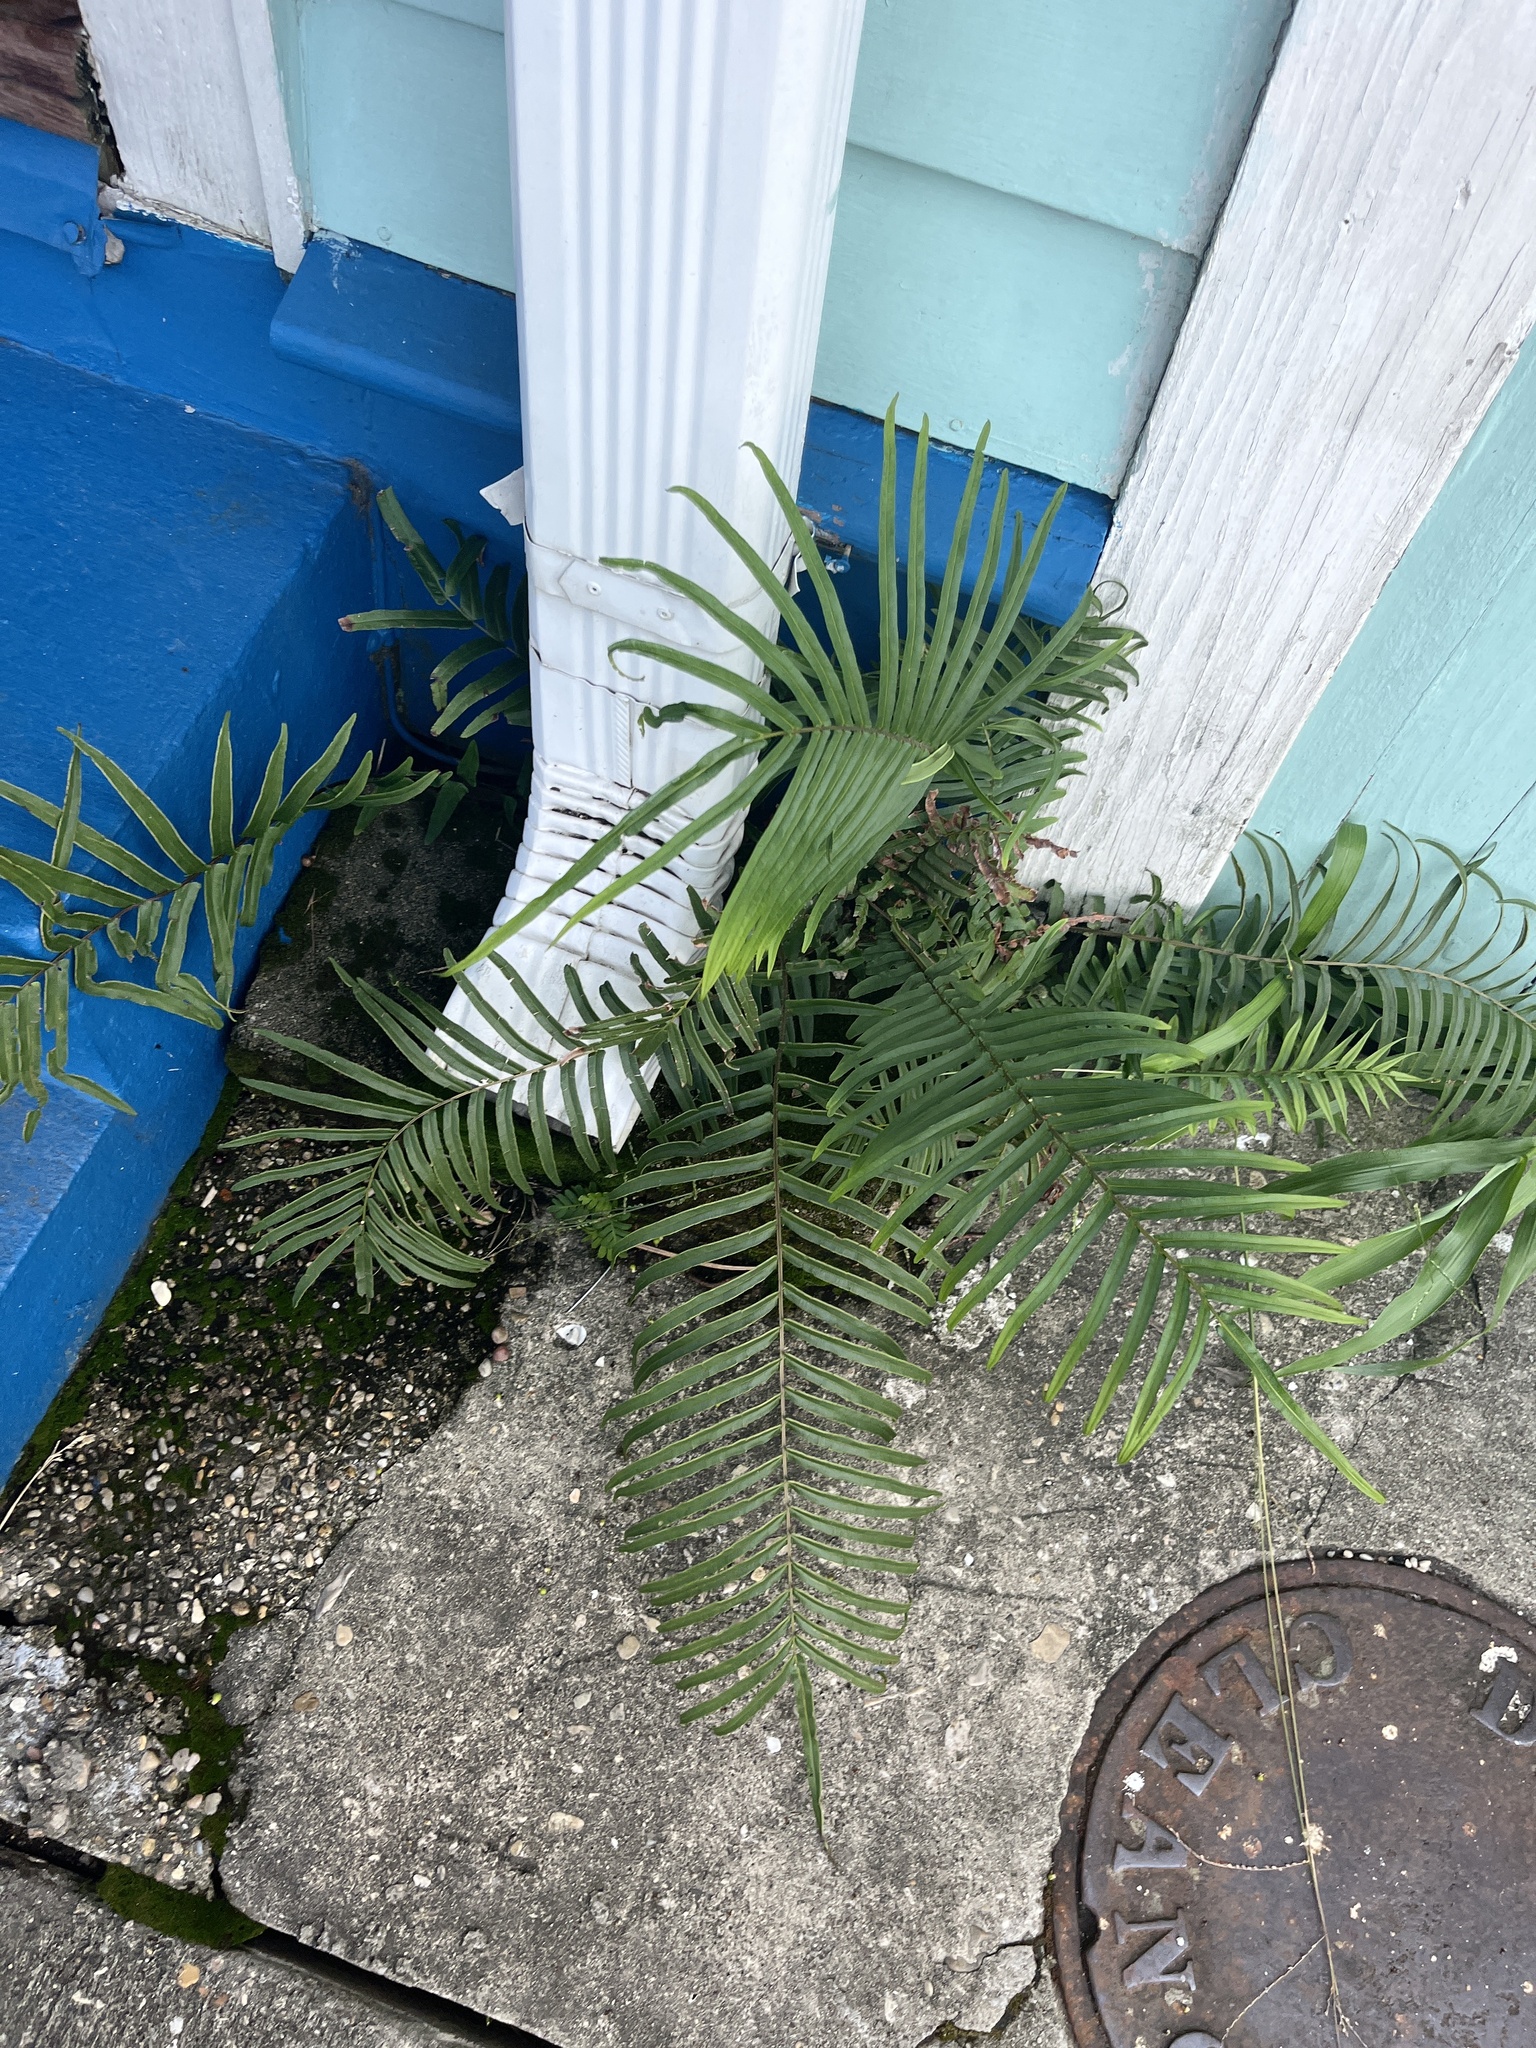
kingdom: Plantae
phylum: Tracheophyta
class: Polypodiopsida
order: Polypodiales
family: Pteridaceae
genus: Pteris
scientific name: Pteris vittata
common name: Ladder brake
